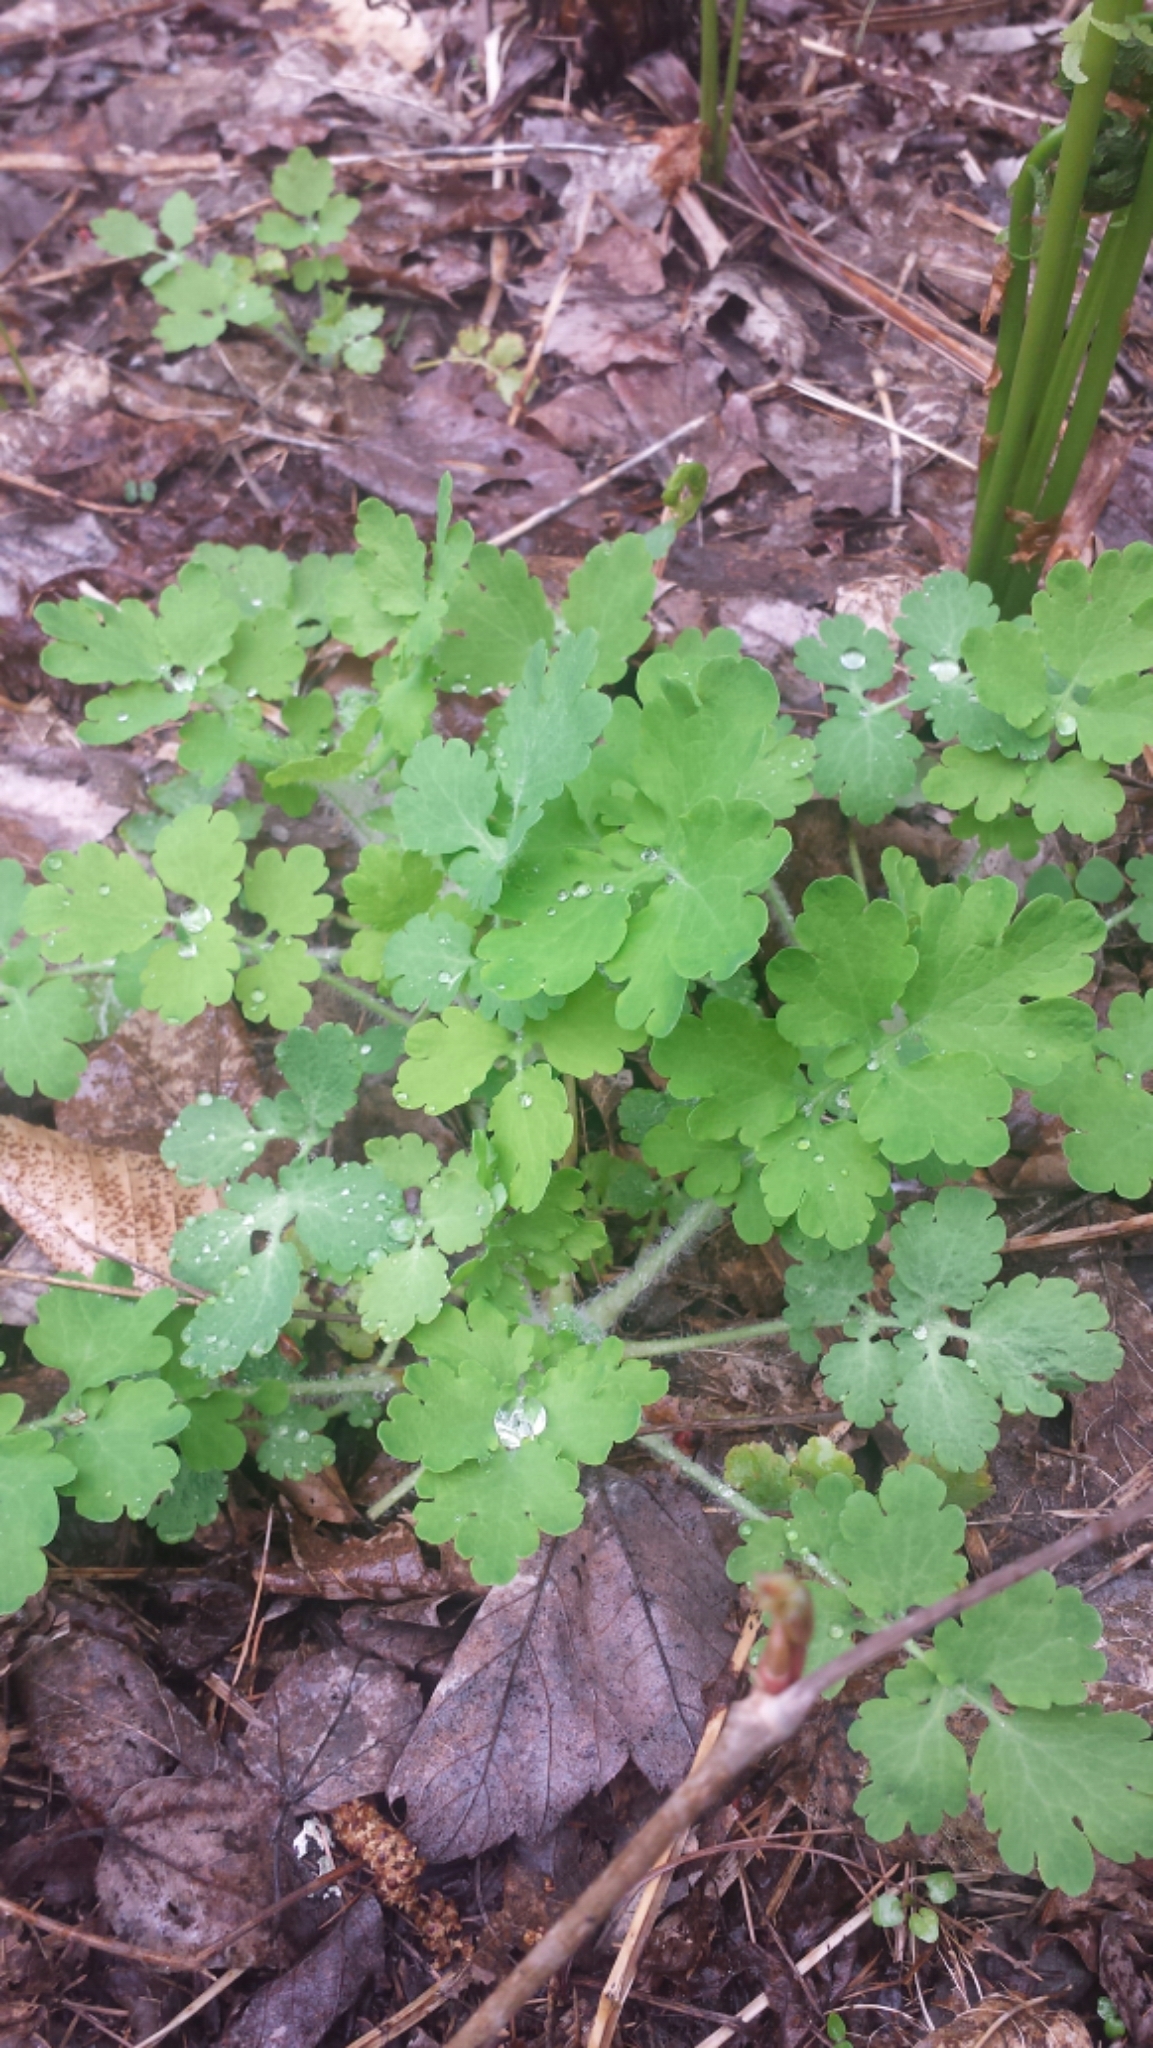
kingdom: Plantae
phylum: Tracheophyta
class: Magnoliopsida
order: Ranunculales
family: Papaveraceae
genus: Chelidonium
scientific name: Chelidonium majus
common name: Greater celandine
